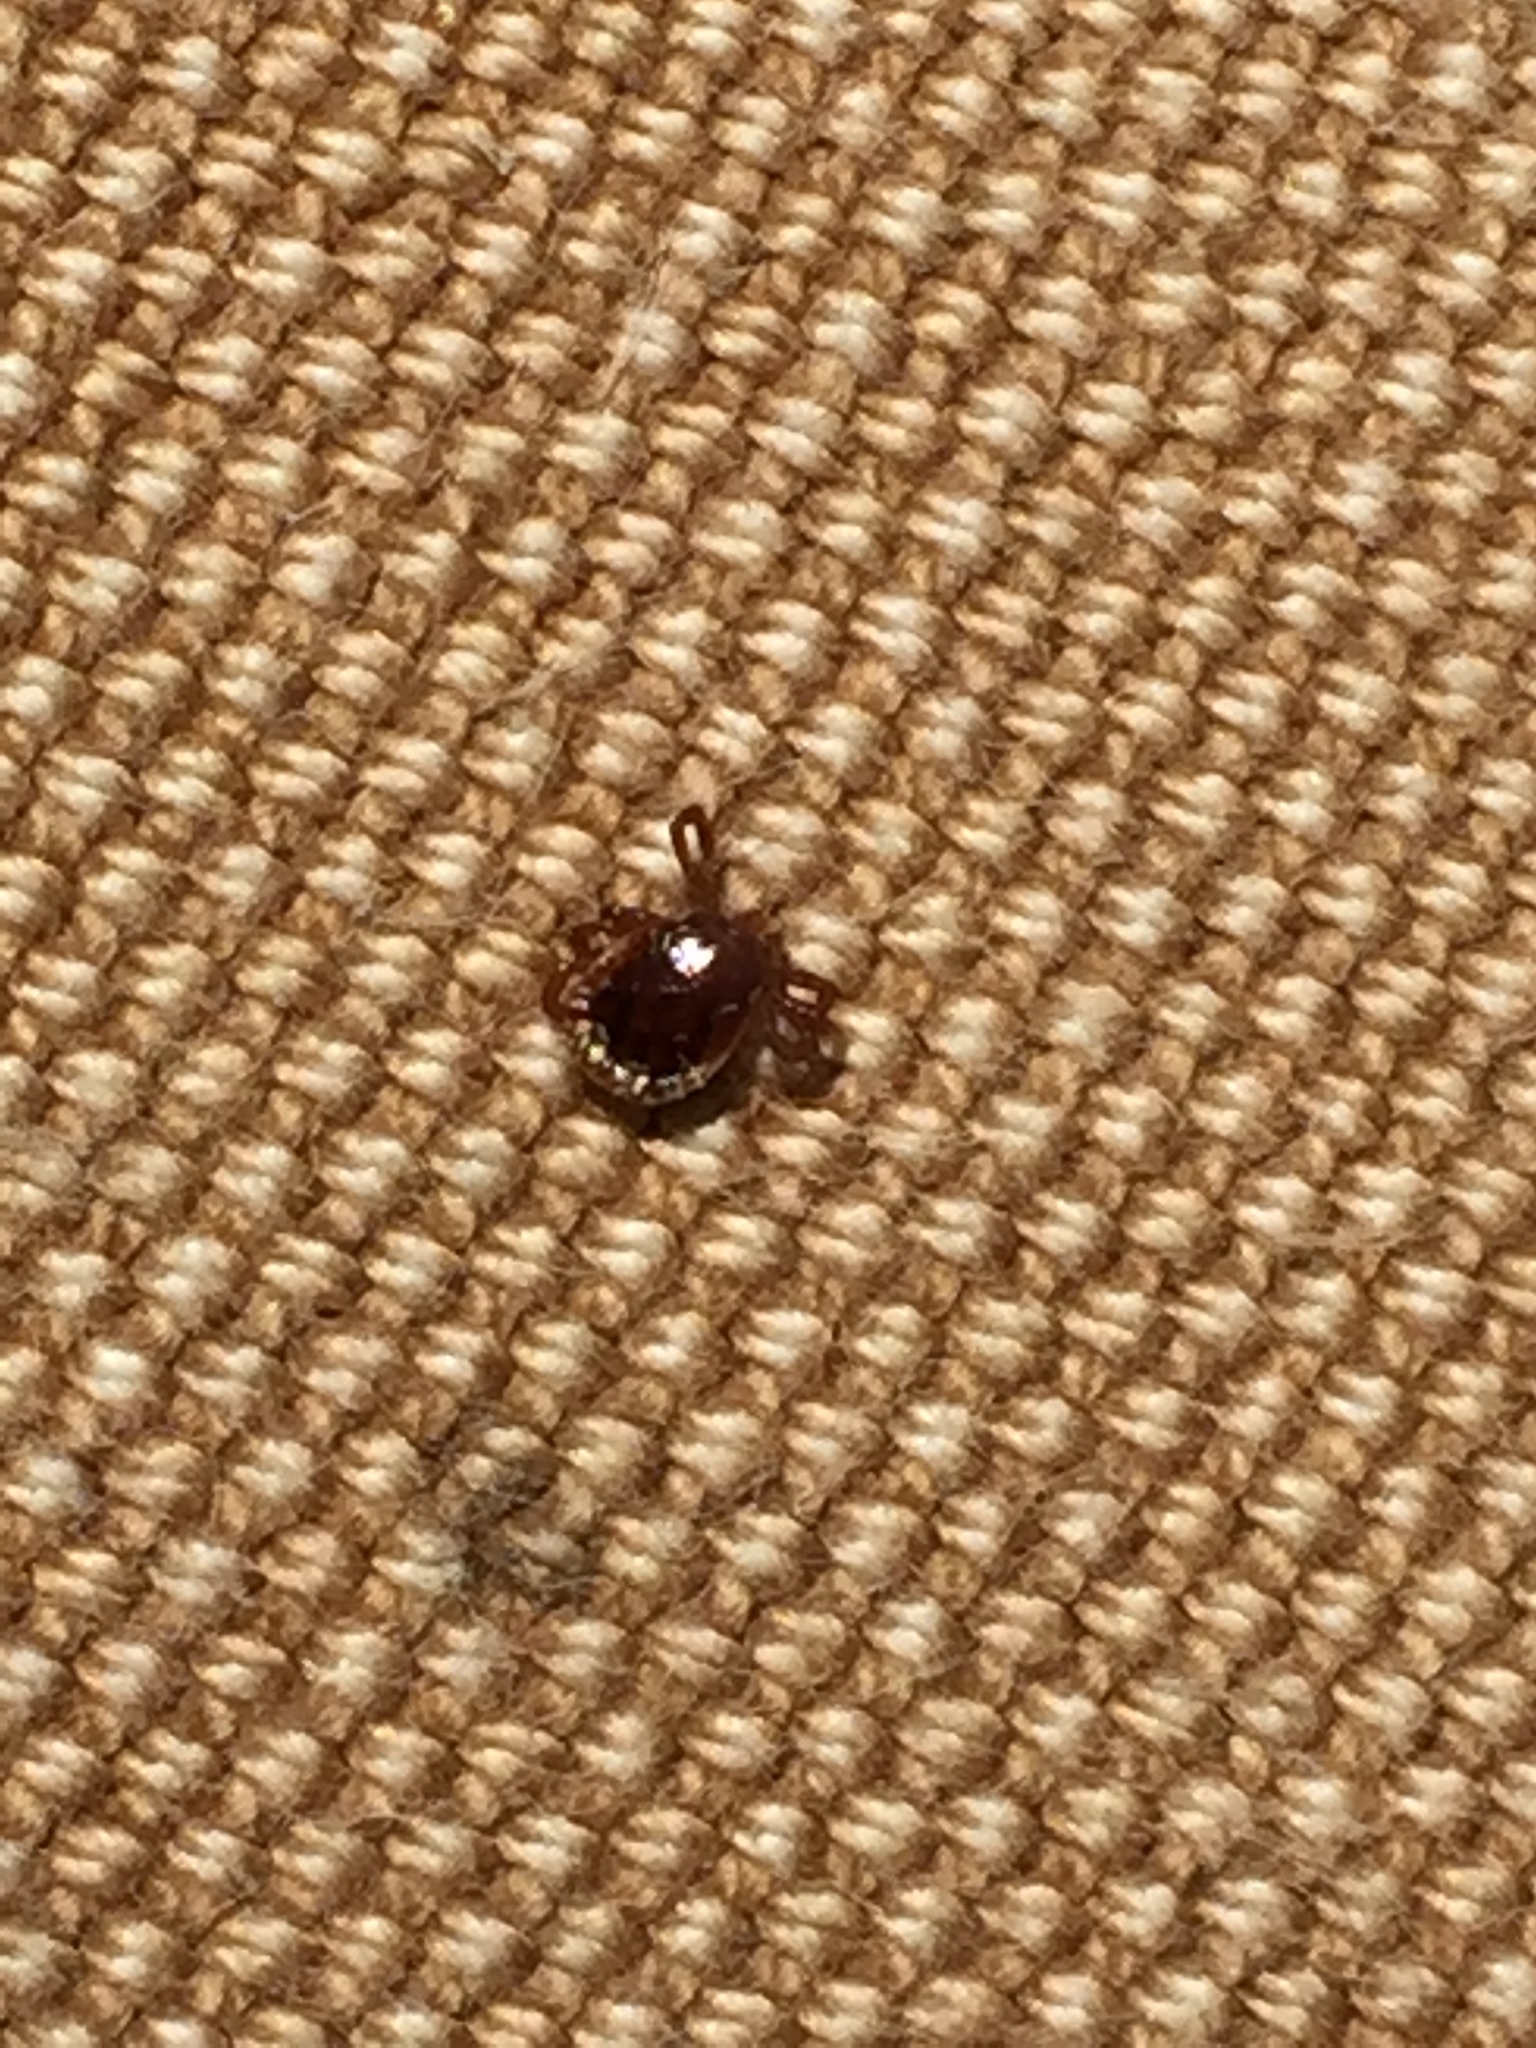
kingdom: Animalia
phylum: Arthropoda
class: Arachnida
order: Ixodida
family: Ixodidae
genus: Amblyomma
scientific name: Amblyomma americanum
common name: Lone star tick
